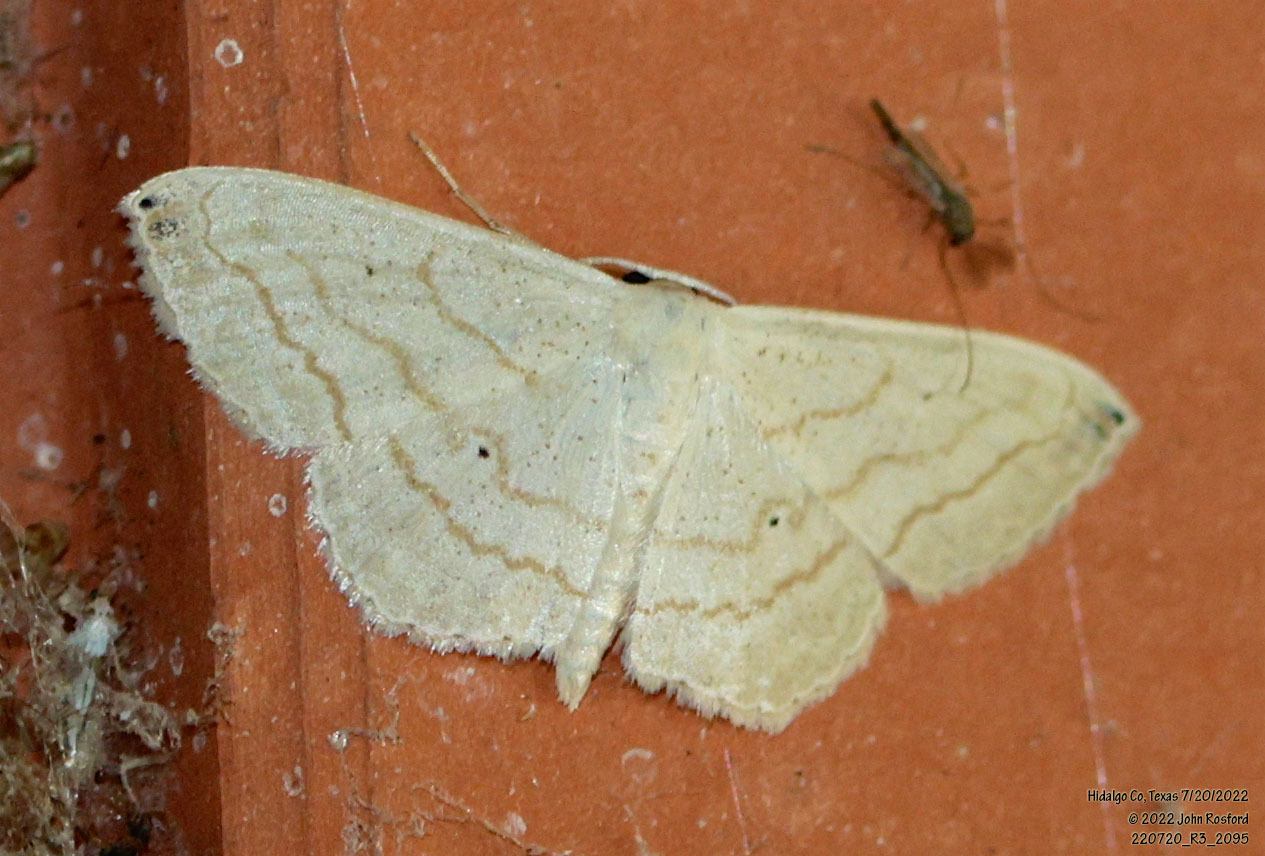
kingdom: Animalia
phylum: Arthropoda
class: Insecta
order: Lepidoptera
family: Geometridae
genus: Scopula
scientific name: Scopula umbilicata
